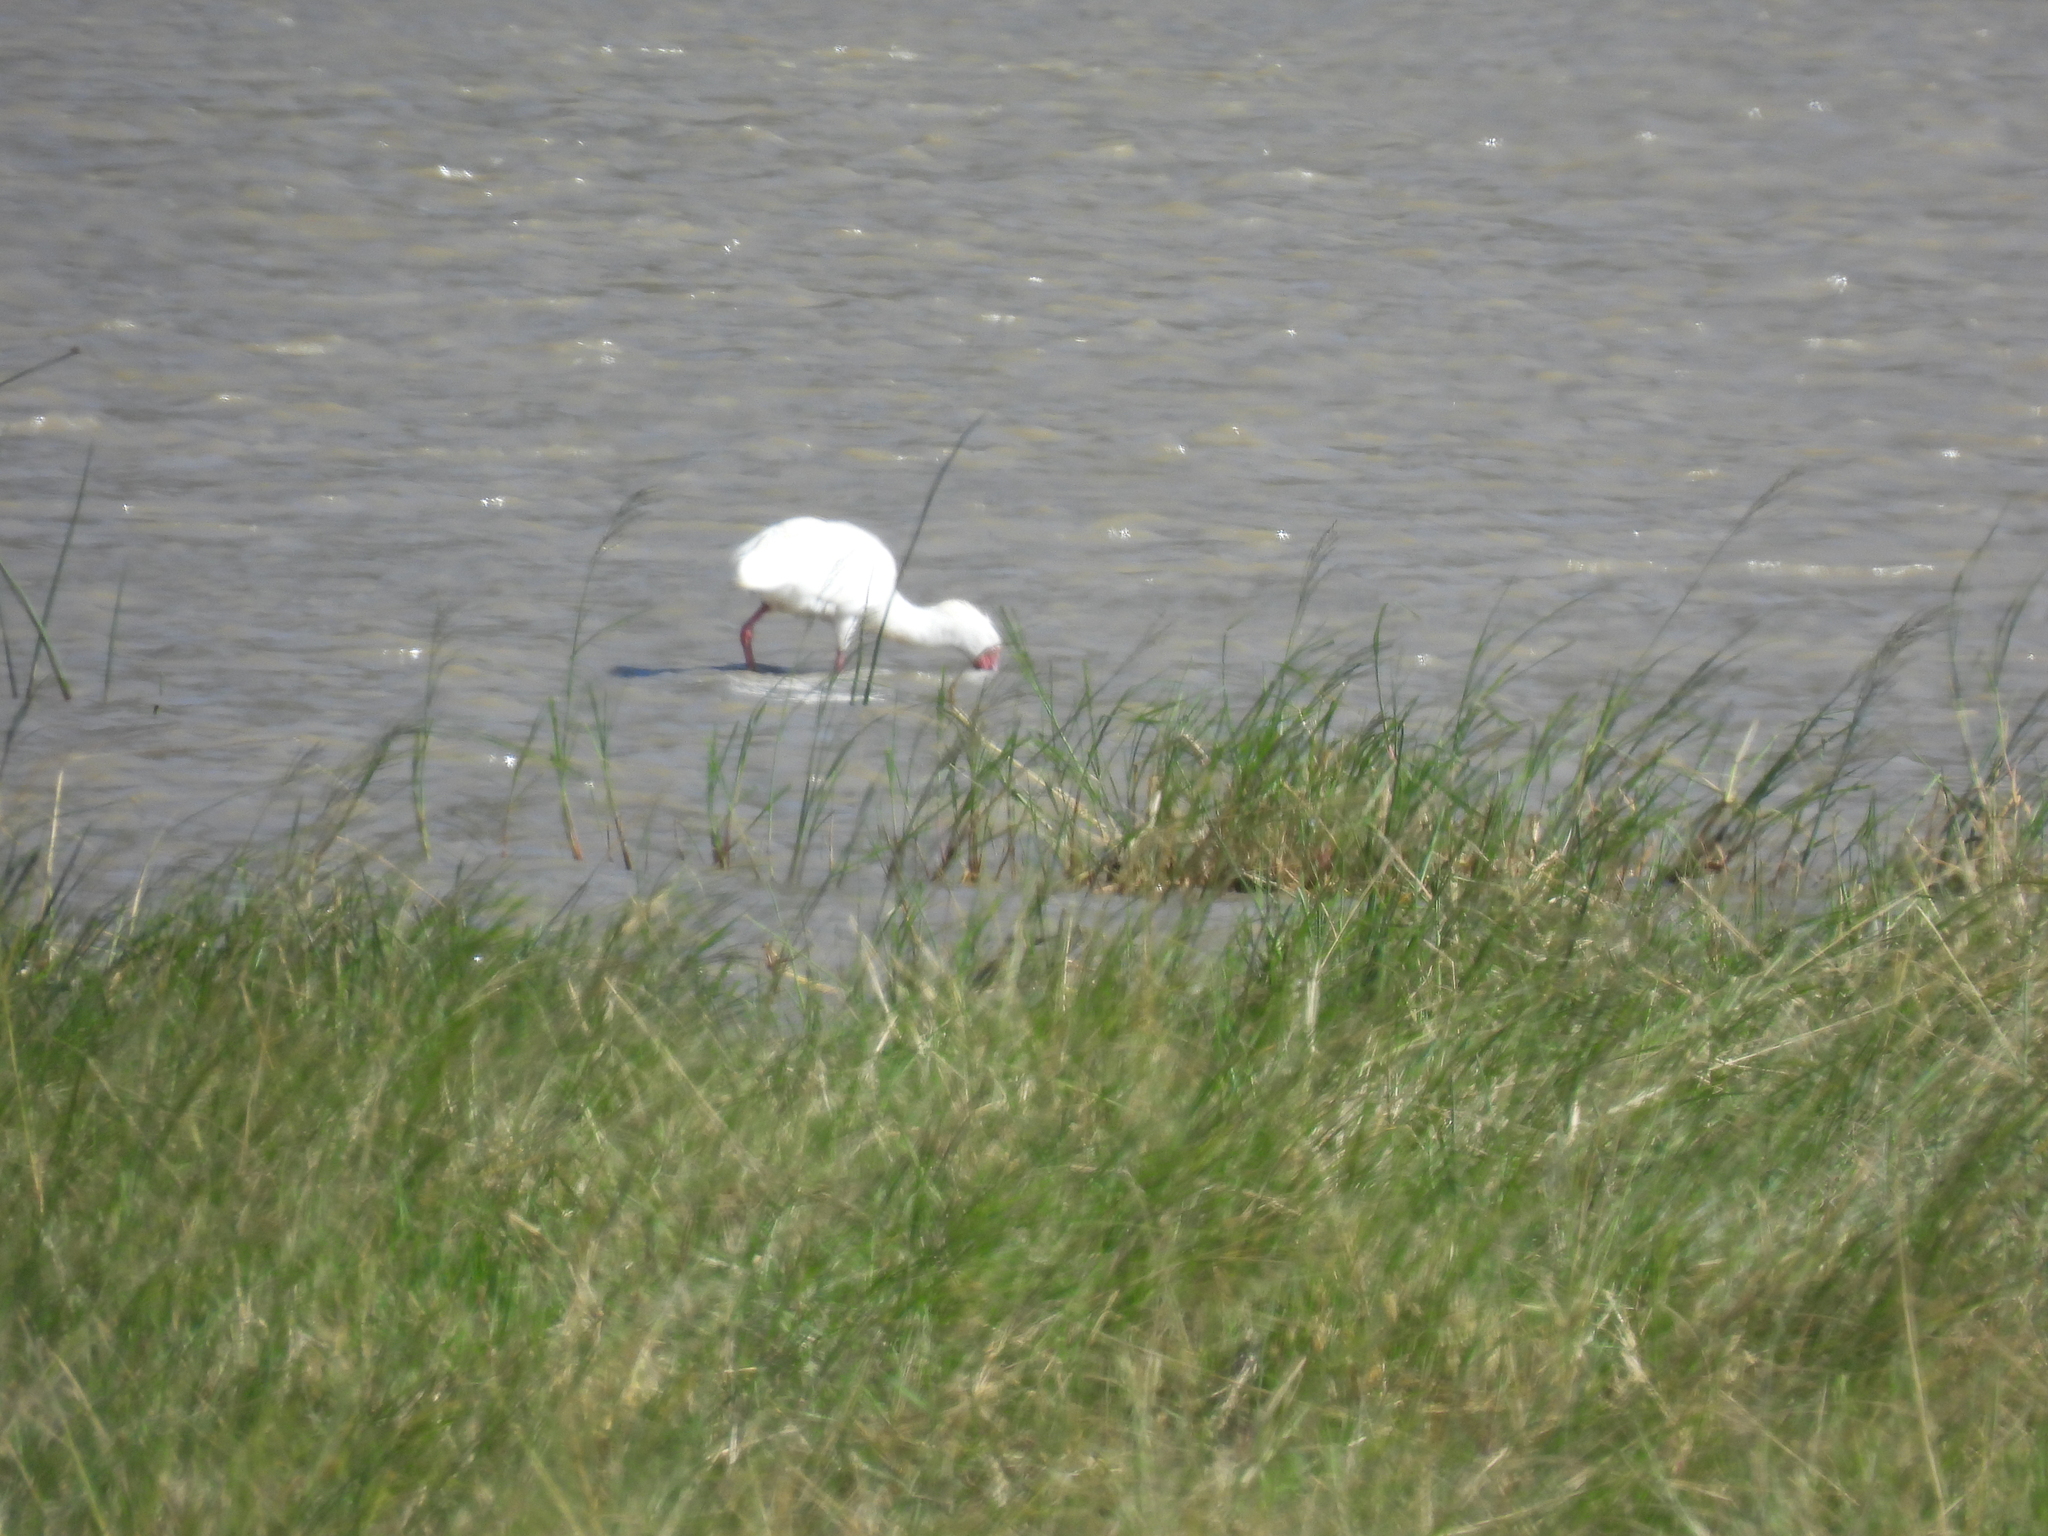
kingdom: Animalia
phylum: Chordata
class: Aves
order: Pelecaniformes
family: Threskiornithidae
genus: Platalea
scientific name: Platalea alba
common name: African spoonbill
